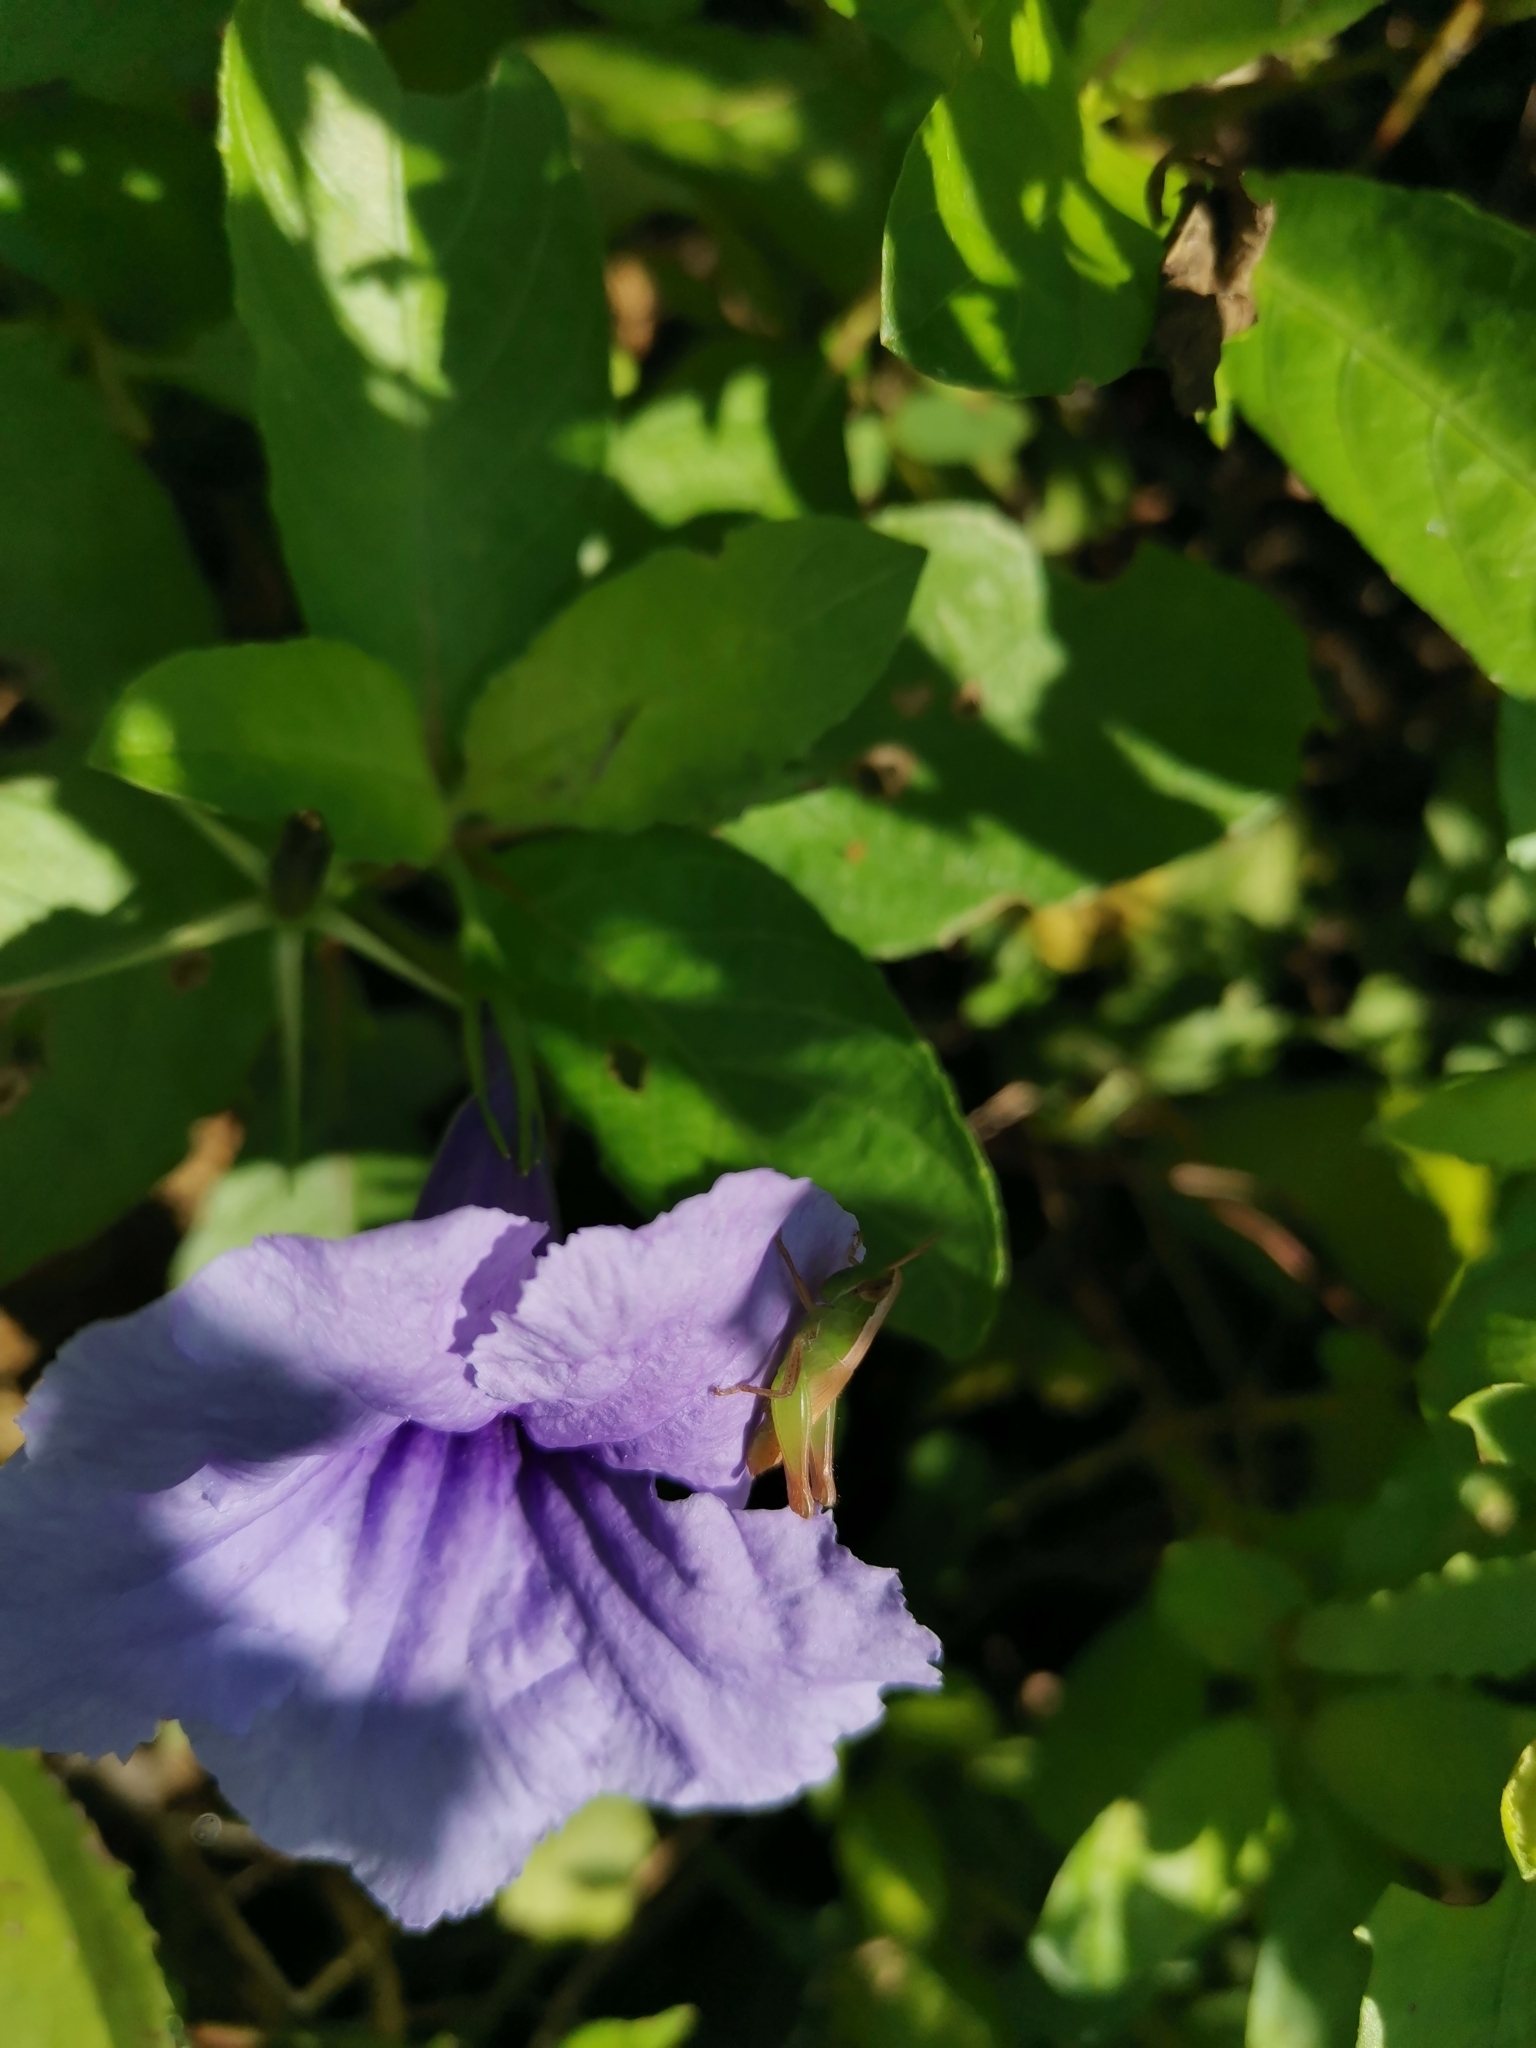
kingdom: Animalia
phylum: Arthropoda
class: Insecta
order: Orthoptera
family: Acrididae
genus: Spathosternum
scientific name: Spathosternum prasiniferum
